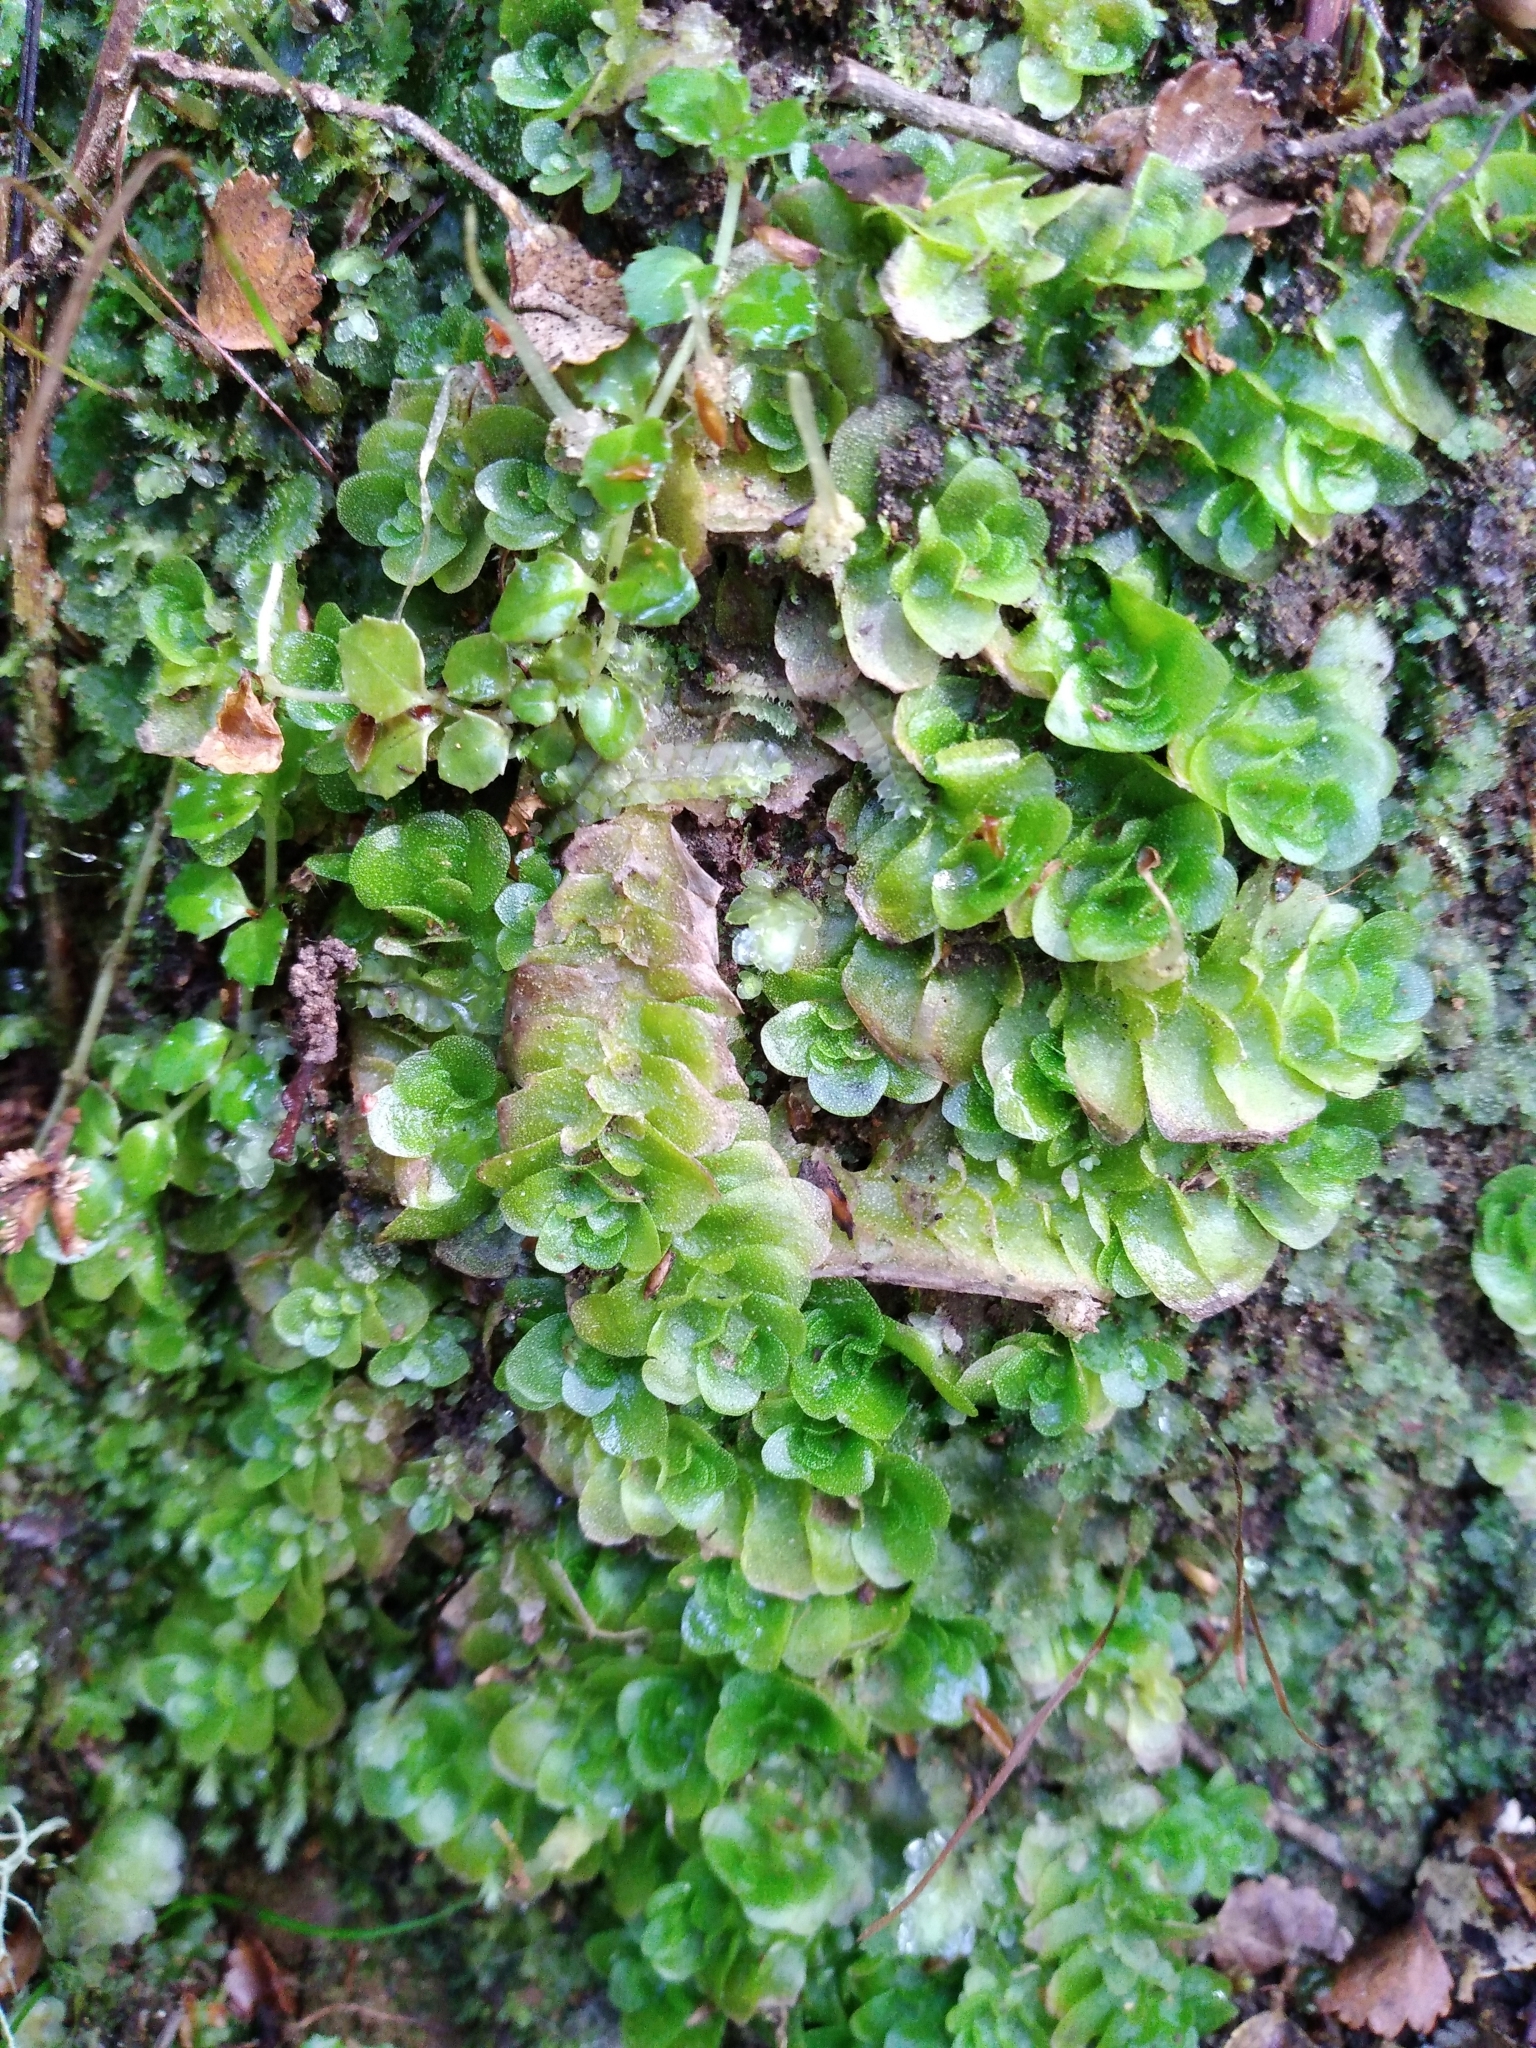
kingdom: Plantae
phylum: Marchantiophyta
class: Haplomitriopsida
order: Treubiales
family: Treubiaceae
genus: Treubia
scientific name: Treubia lacunosa
